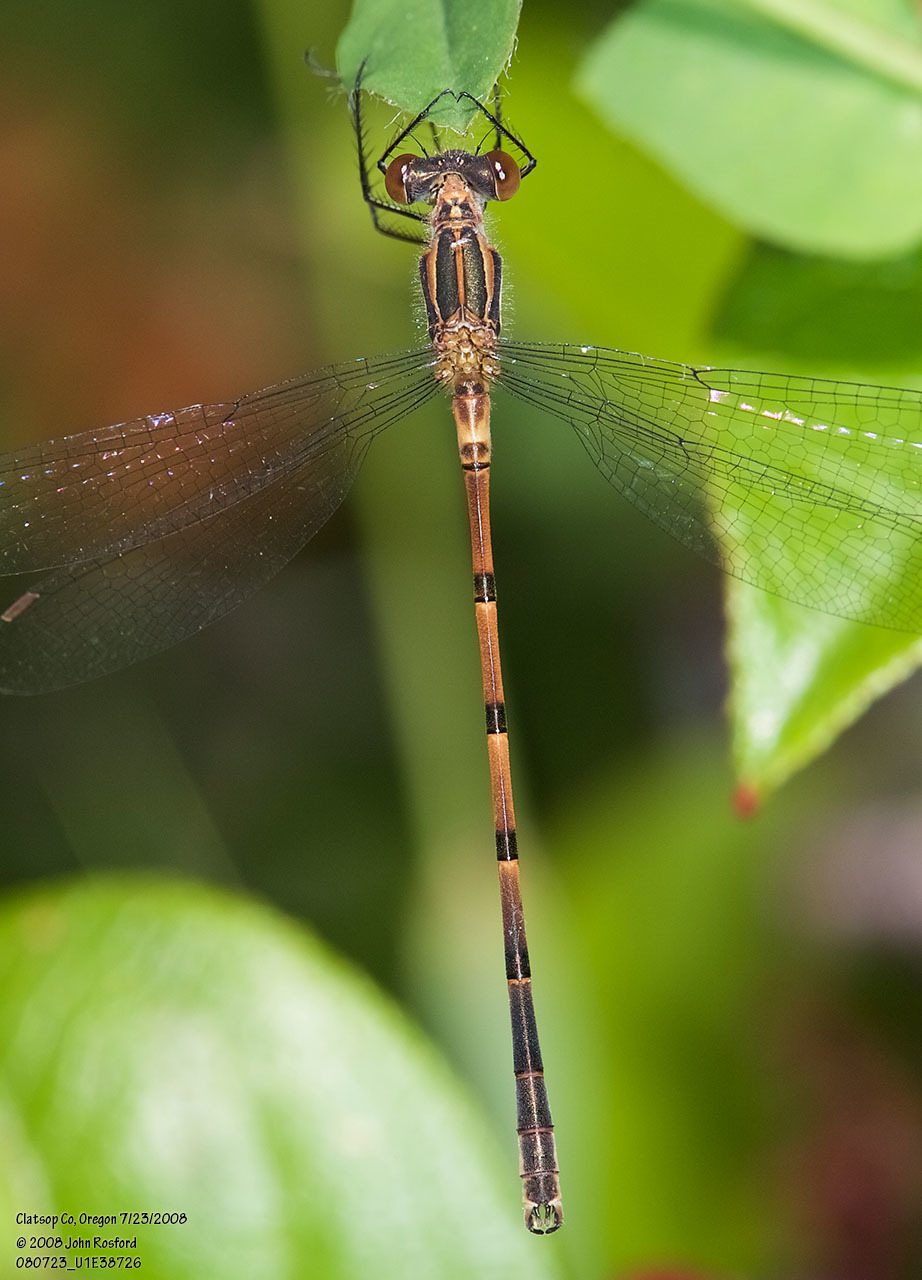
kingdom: Animalia
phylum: Arthropoda
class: Insecta
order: Odonata
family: Lestidae
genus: Lestes
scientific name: Lestes disjunctus
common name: Northern spreadwing
